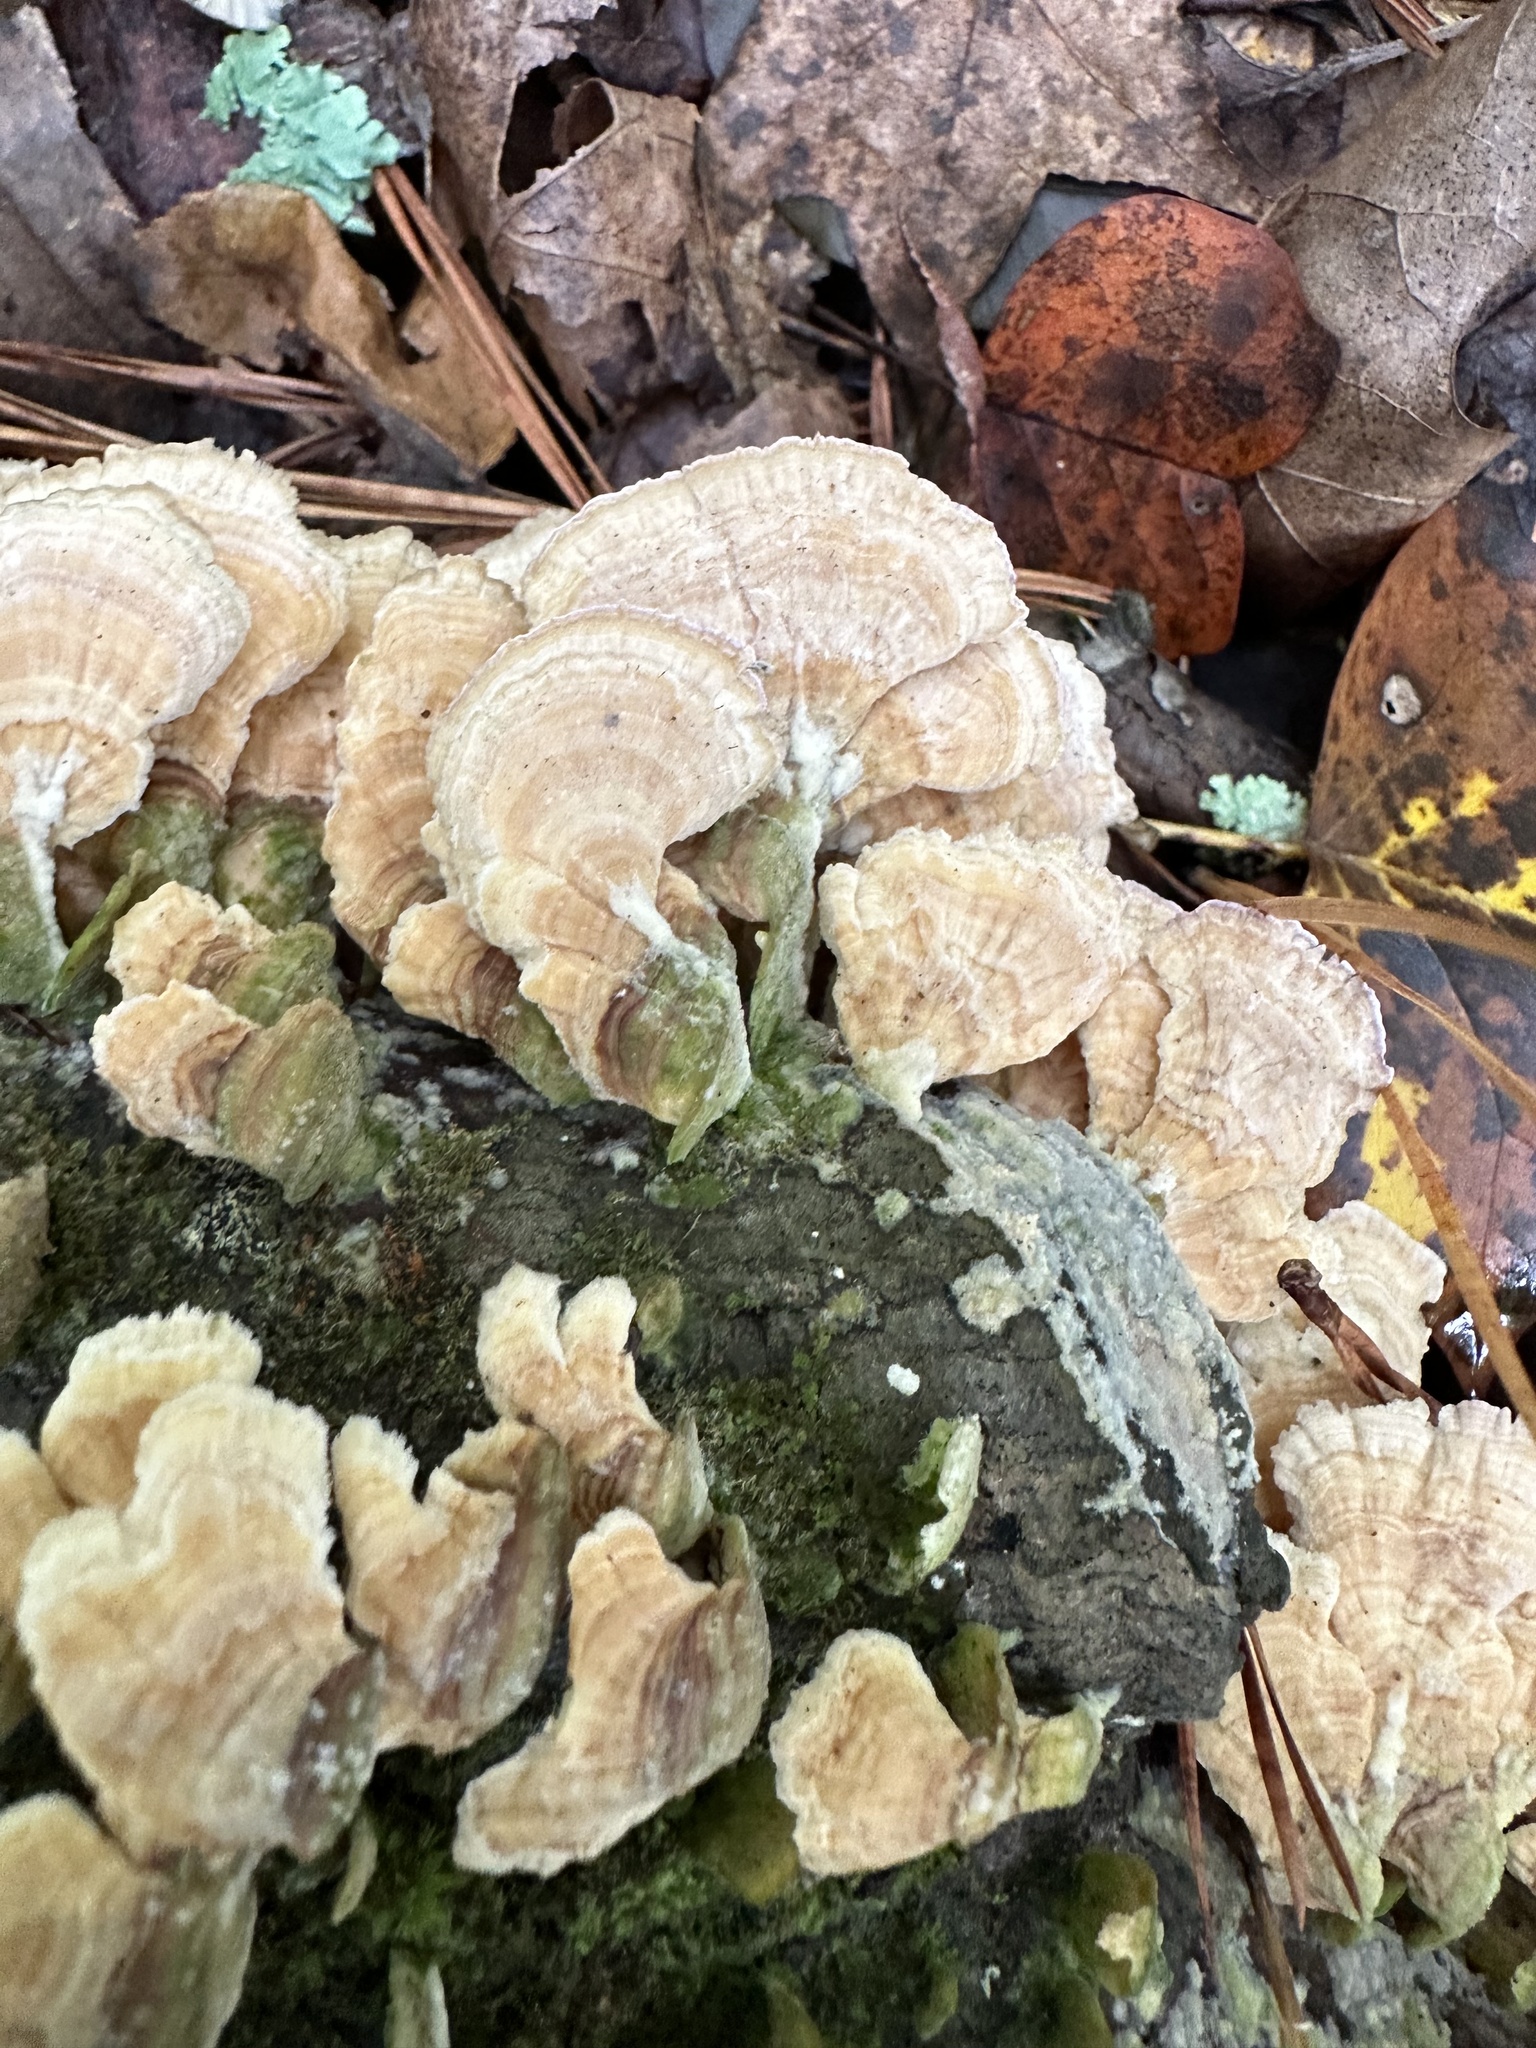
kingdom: Fungi
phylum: Basidiomycota
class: Agaricomycetes
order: Hymenochaetales
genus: Trichaptum
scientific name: Trichaptum biforme
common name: Violet-toothed polypore
